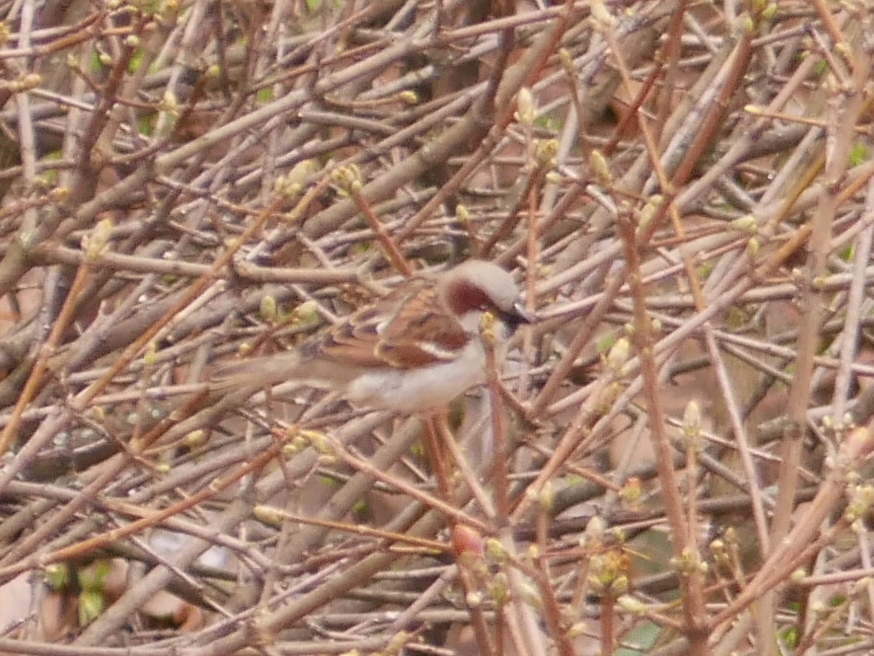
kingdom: Animalia
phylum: Chordata
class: Aves
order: Passeriformes
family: Passeridae
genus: Passer
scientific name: Passer domesticus
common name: House sparrow
